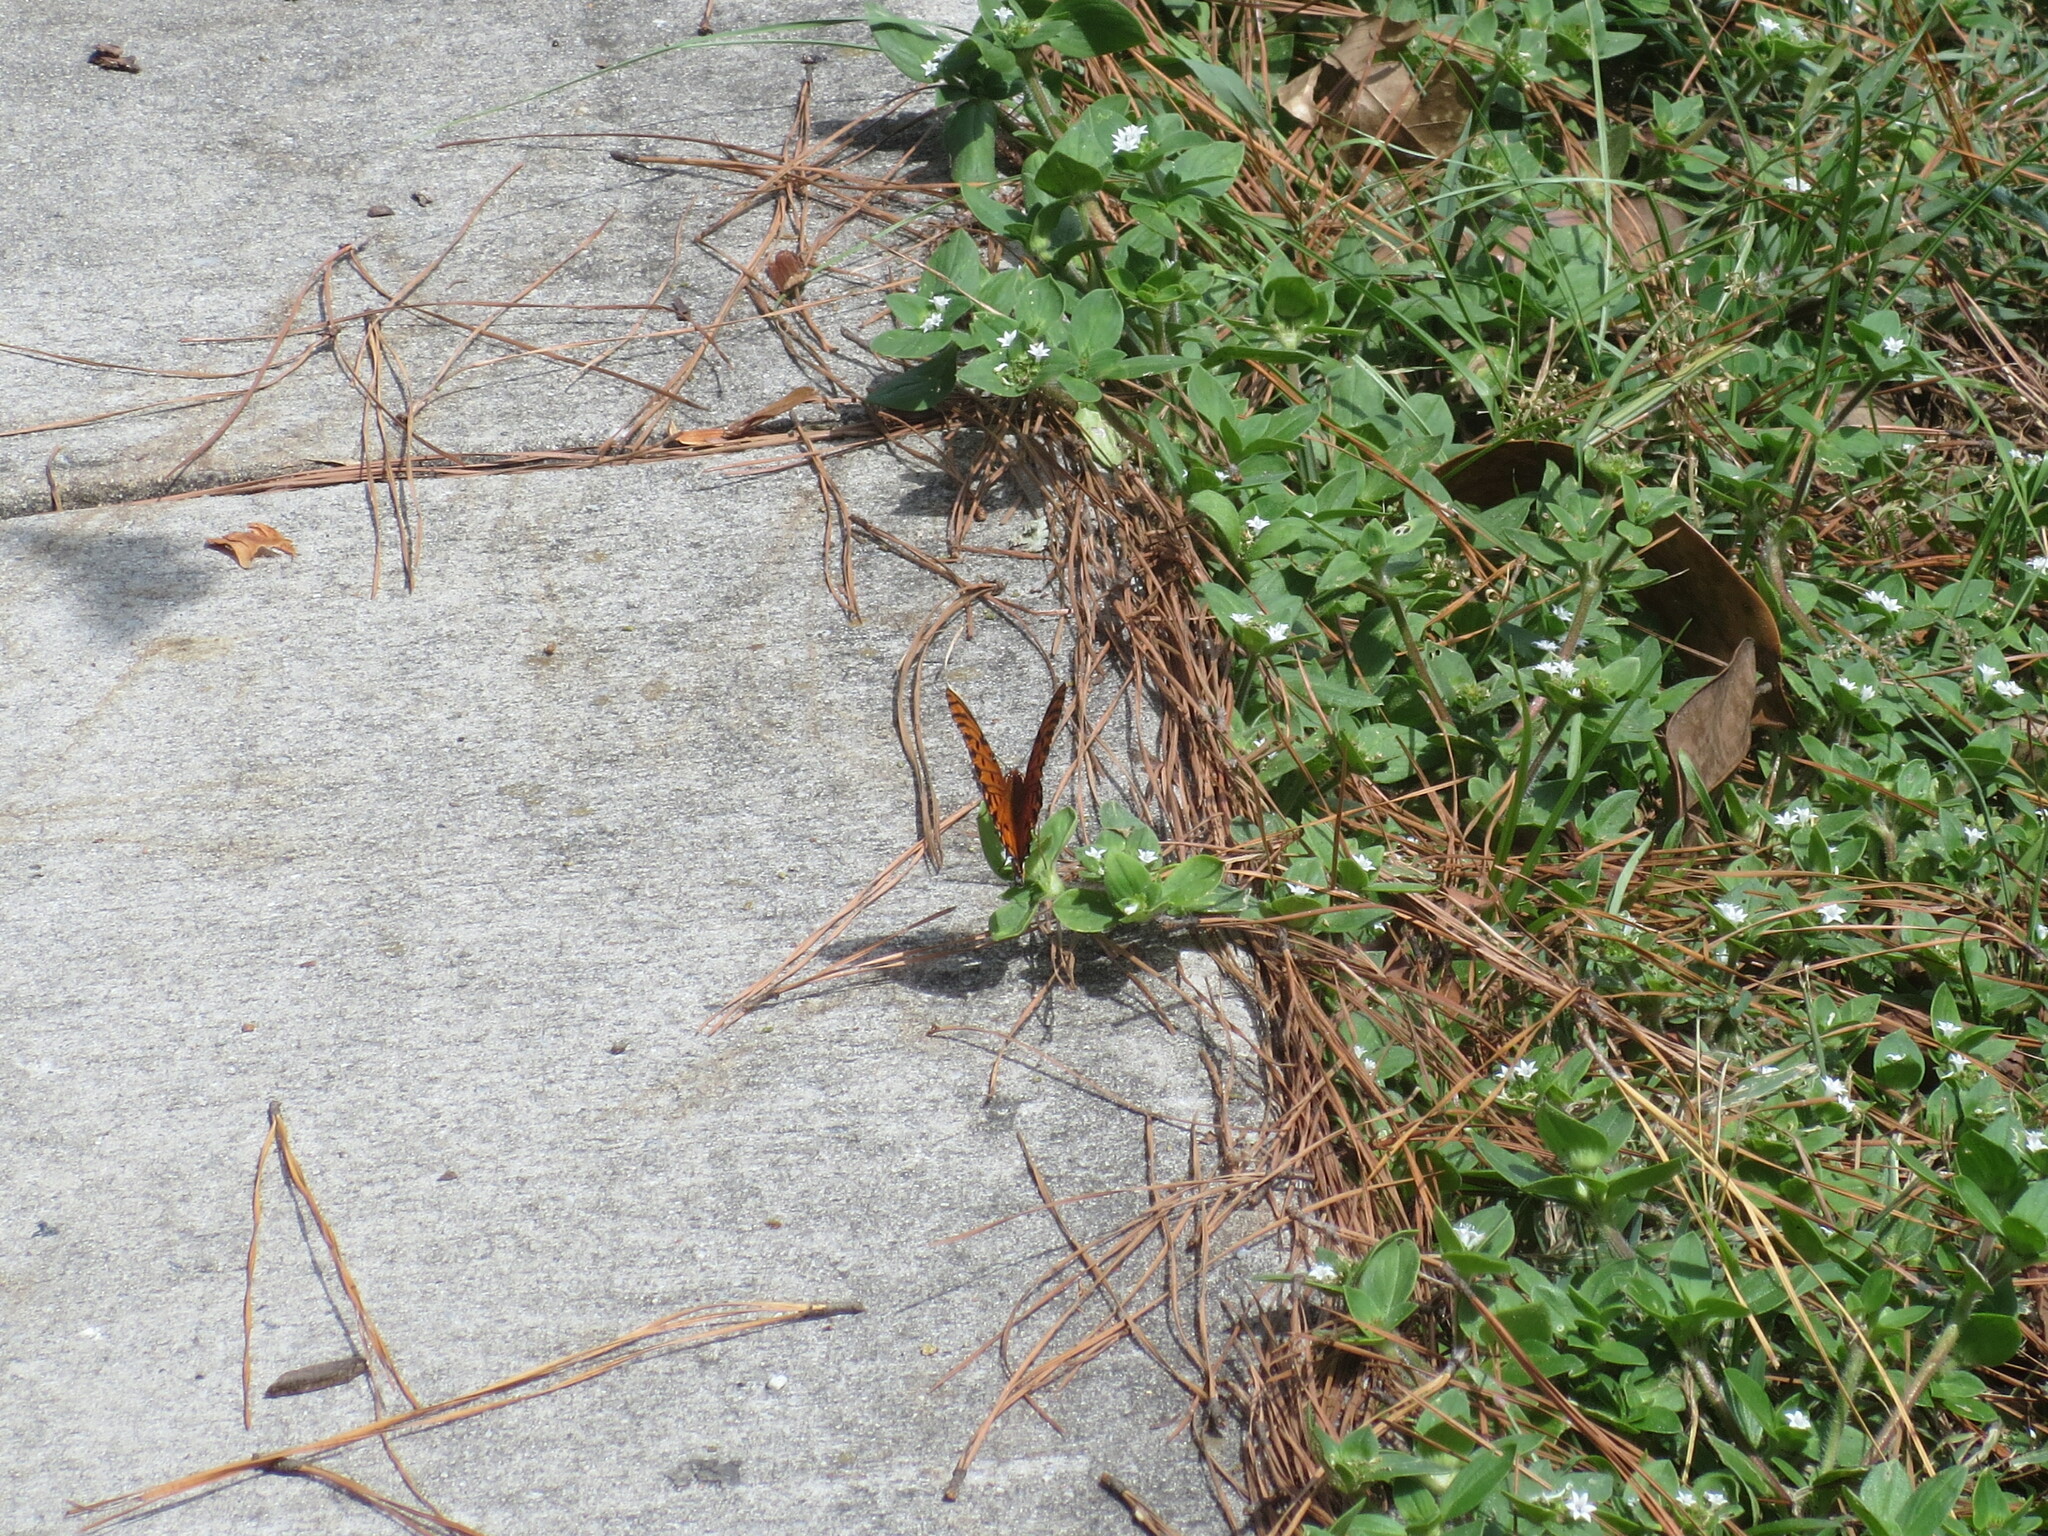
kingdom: Animalia
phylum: Arthropoda
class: Insecta
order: Lepidoptera
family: Nymphalidae
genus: Dione
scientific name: Dione vanillae
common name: Gulf fritillary
